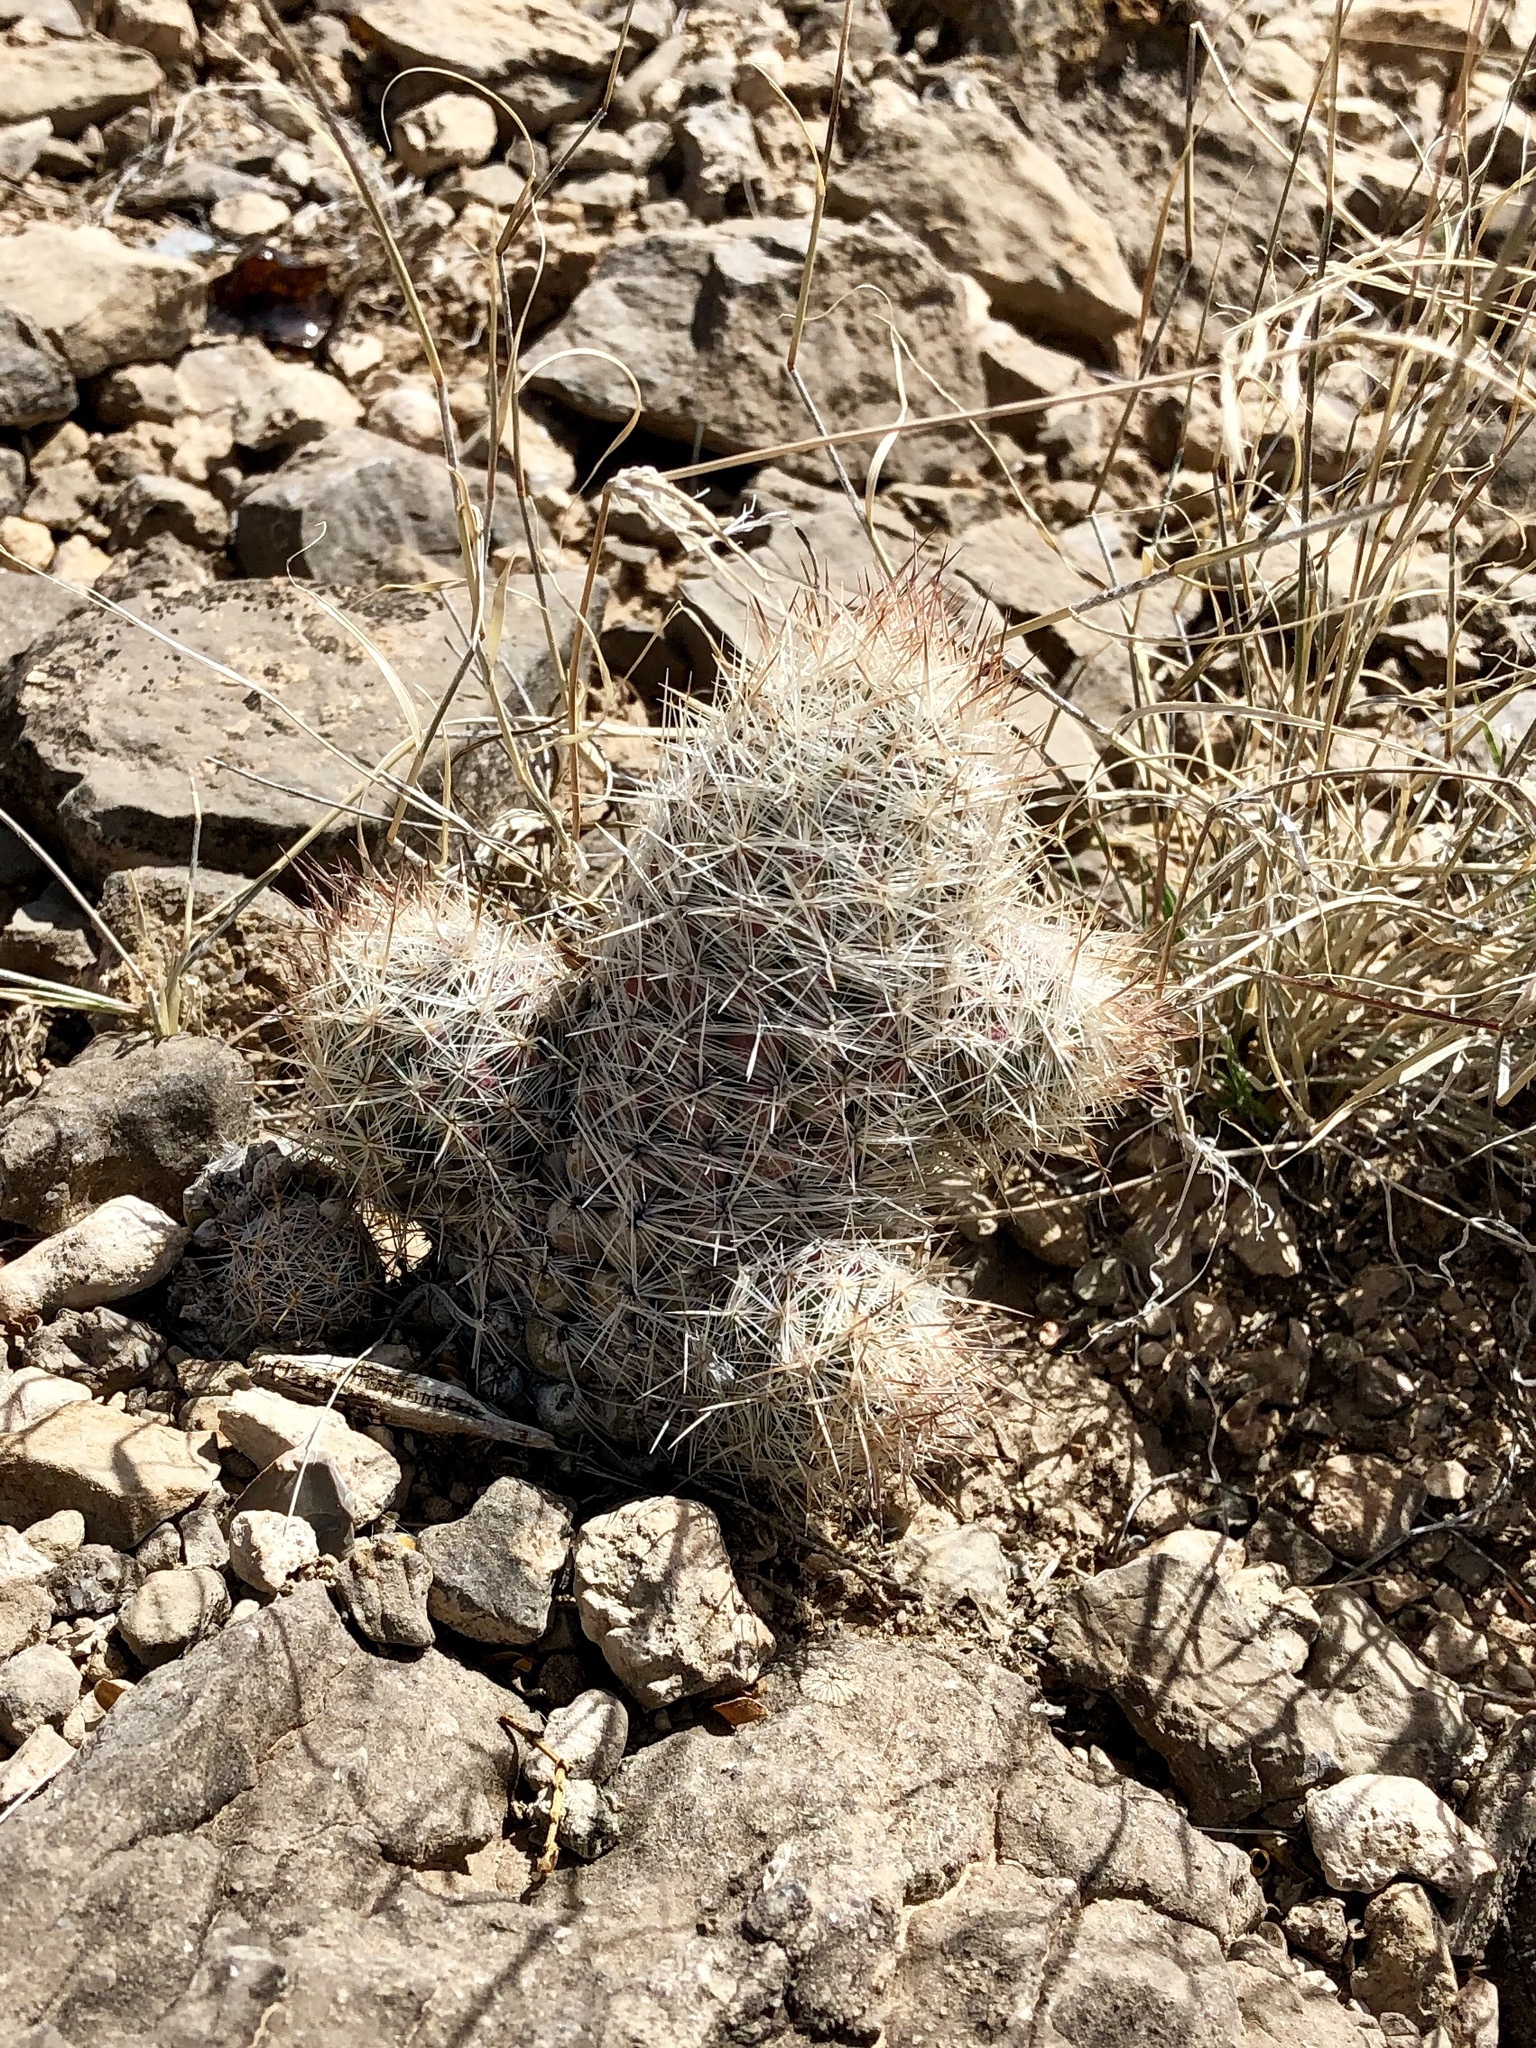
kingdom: Plantae
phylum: Tracheophyta
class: Magnoliopsida
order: Caryophyllales
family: Cactaceae
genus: Pelecyphora
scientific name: Pelecyphora tuberculosa
